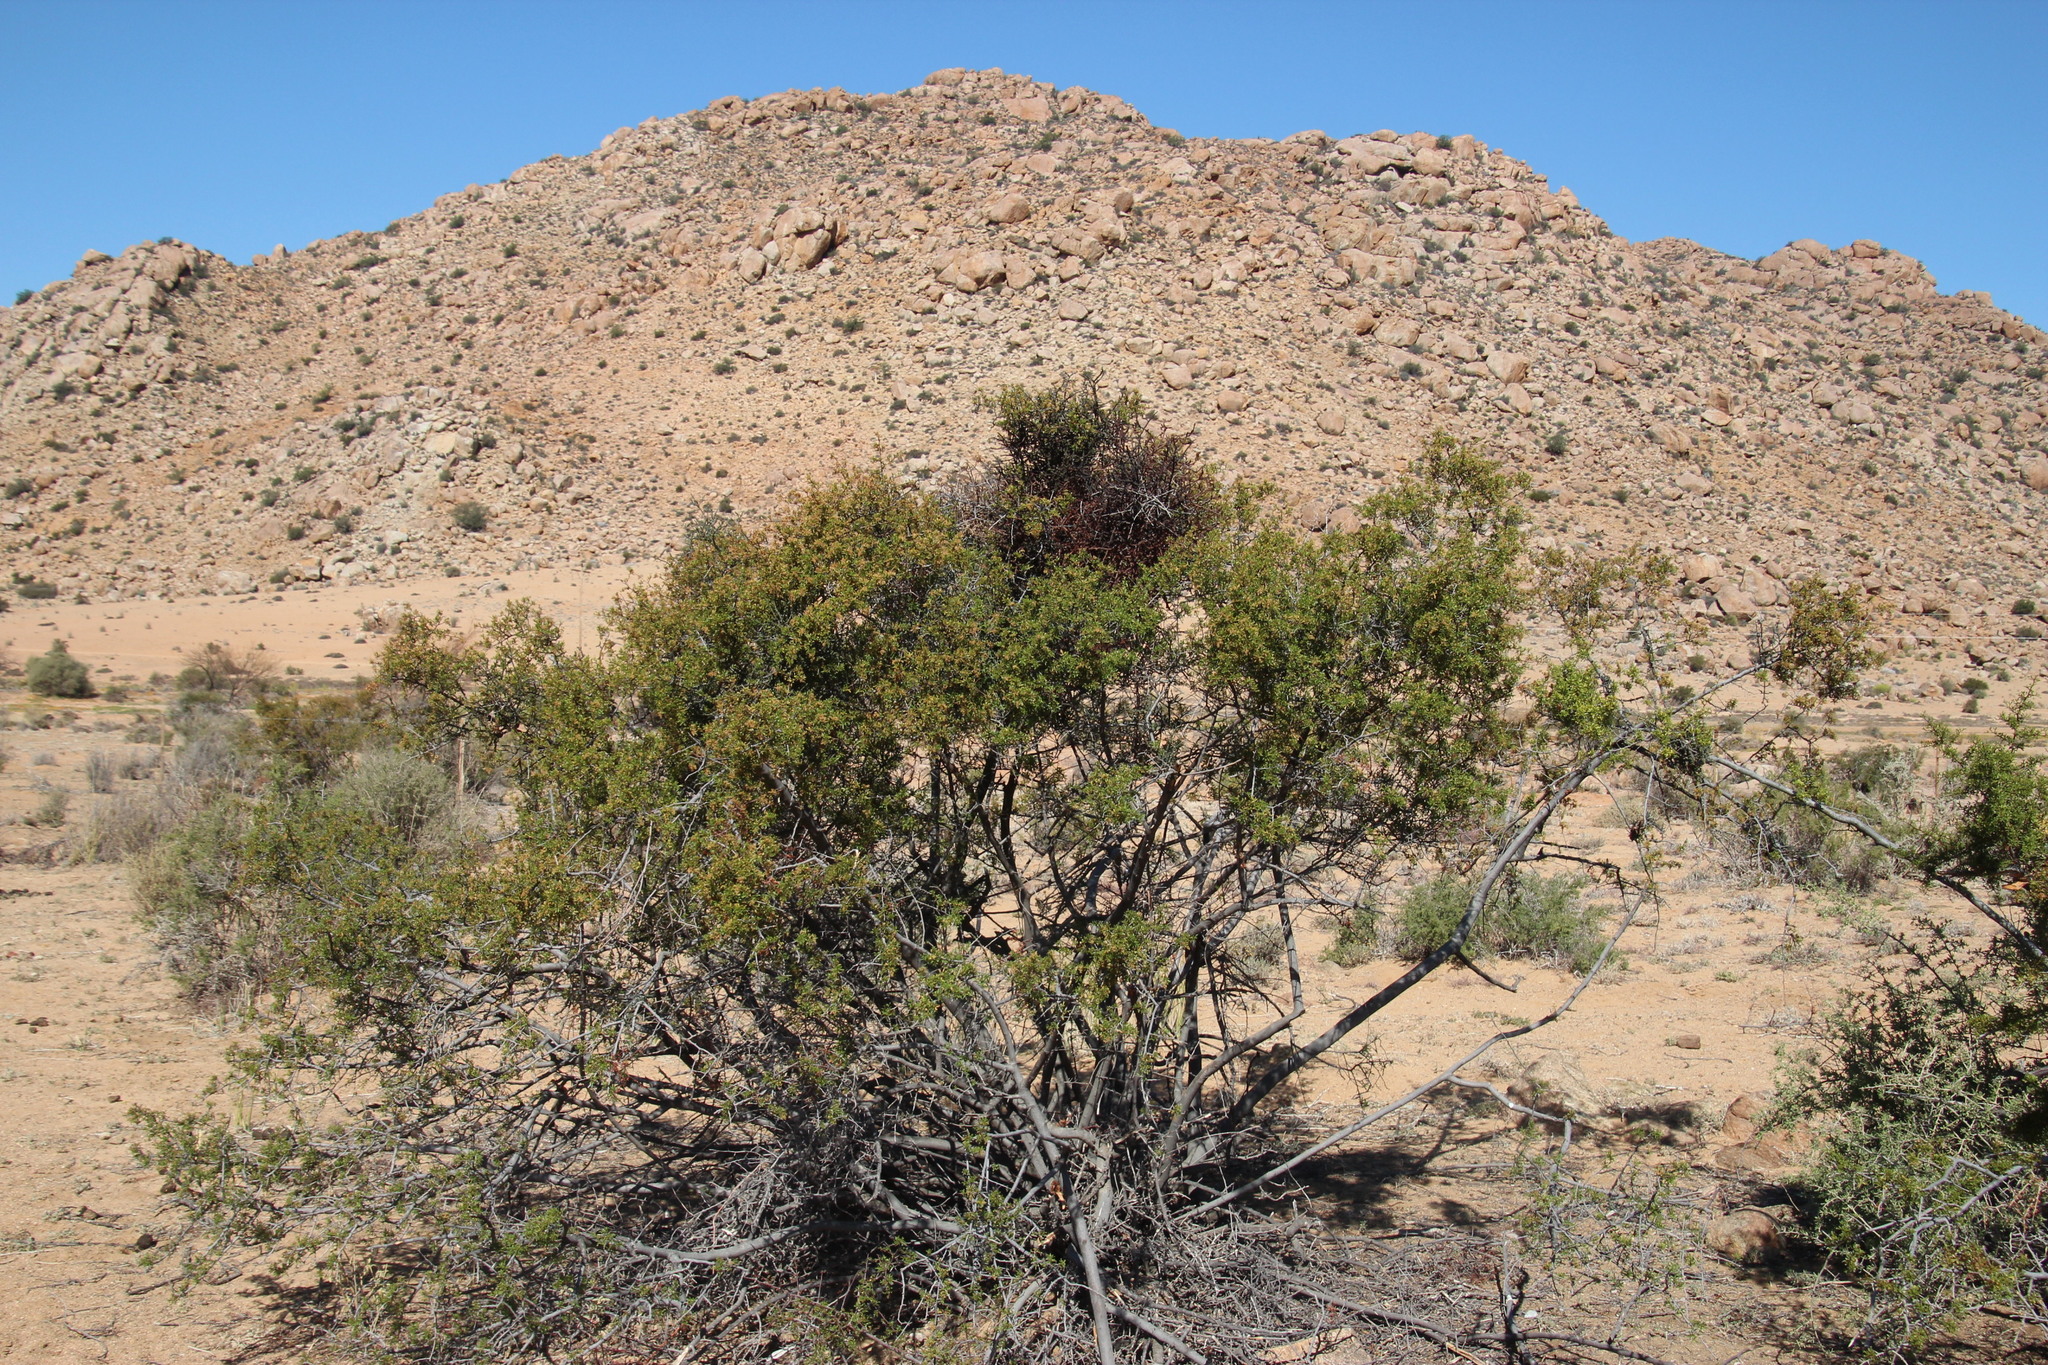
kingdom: Plantae
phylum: Tracheophyta
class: Magnoliopsida
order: Santalales
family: Viscaceae
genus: Viscum
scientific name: Viscum capense
